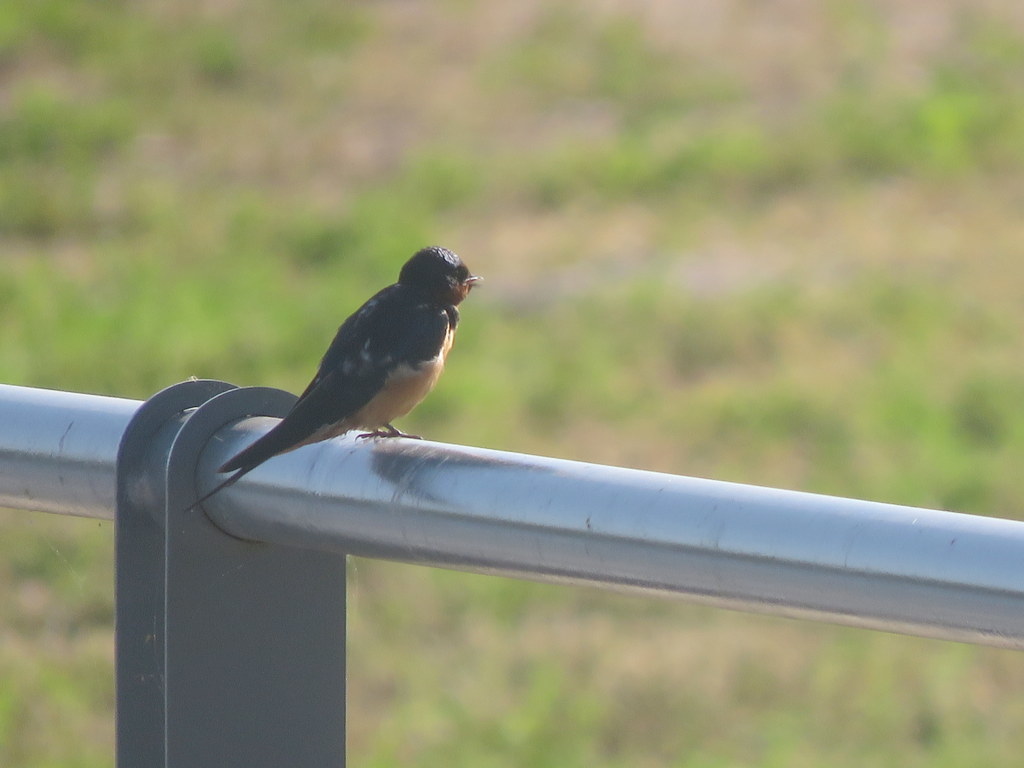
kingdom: Animalia
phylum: Chordata
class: Aves
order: Passeriformes
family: Hirundinidae
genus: Hirundo
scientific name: Hirundo rustica
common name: Barn swallow
